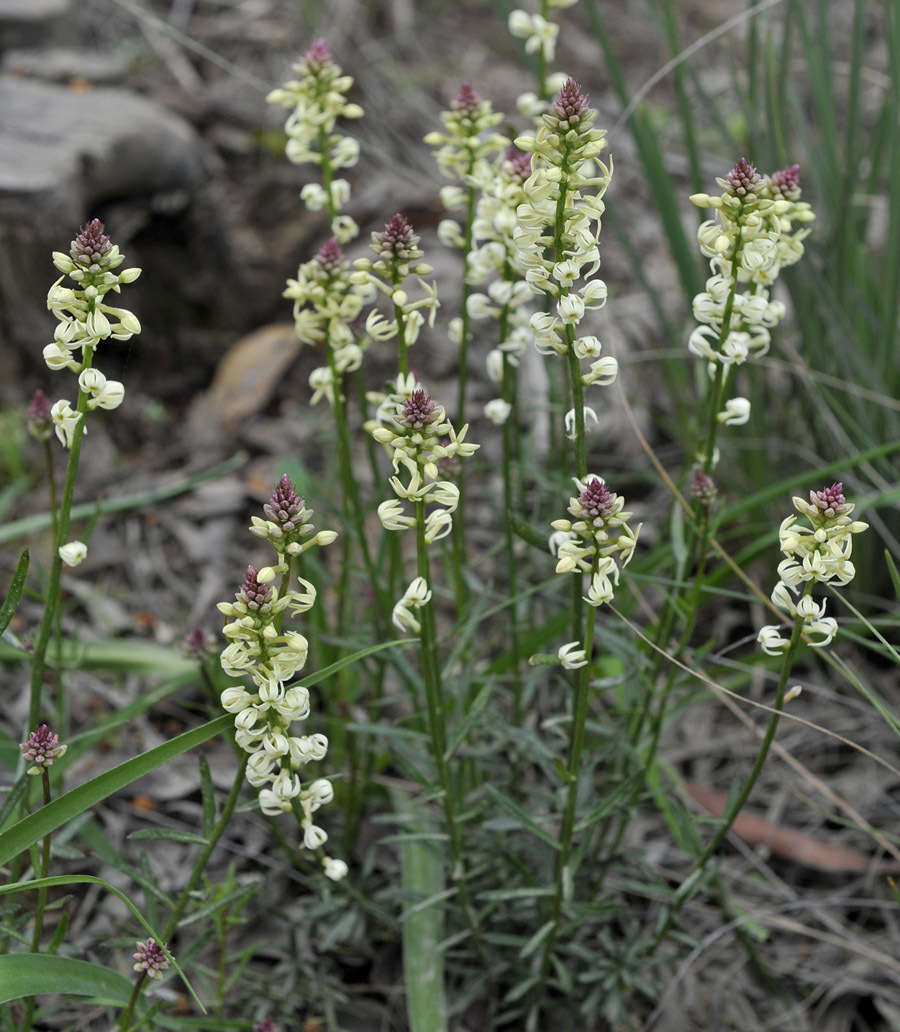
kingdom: Plantae
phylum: Tracheophyta
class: Magnoliopsida
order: Celastrales
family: Celastraceae
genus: Stackhousia
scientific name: Stackhousia monogyna
